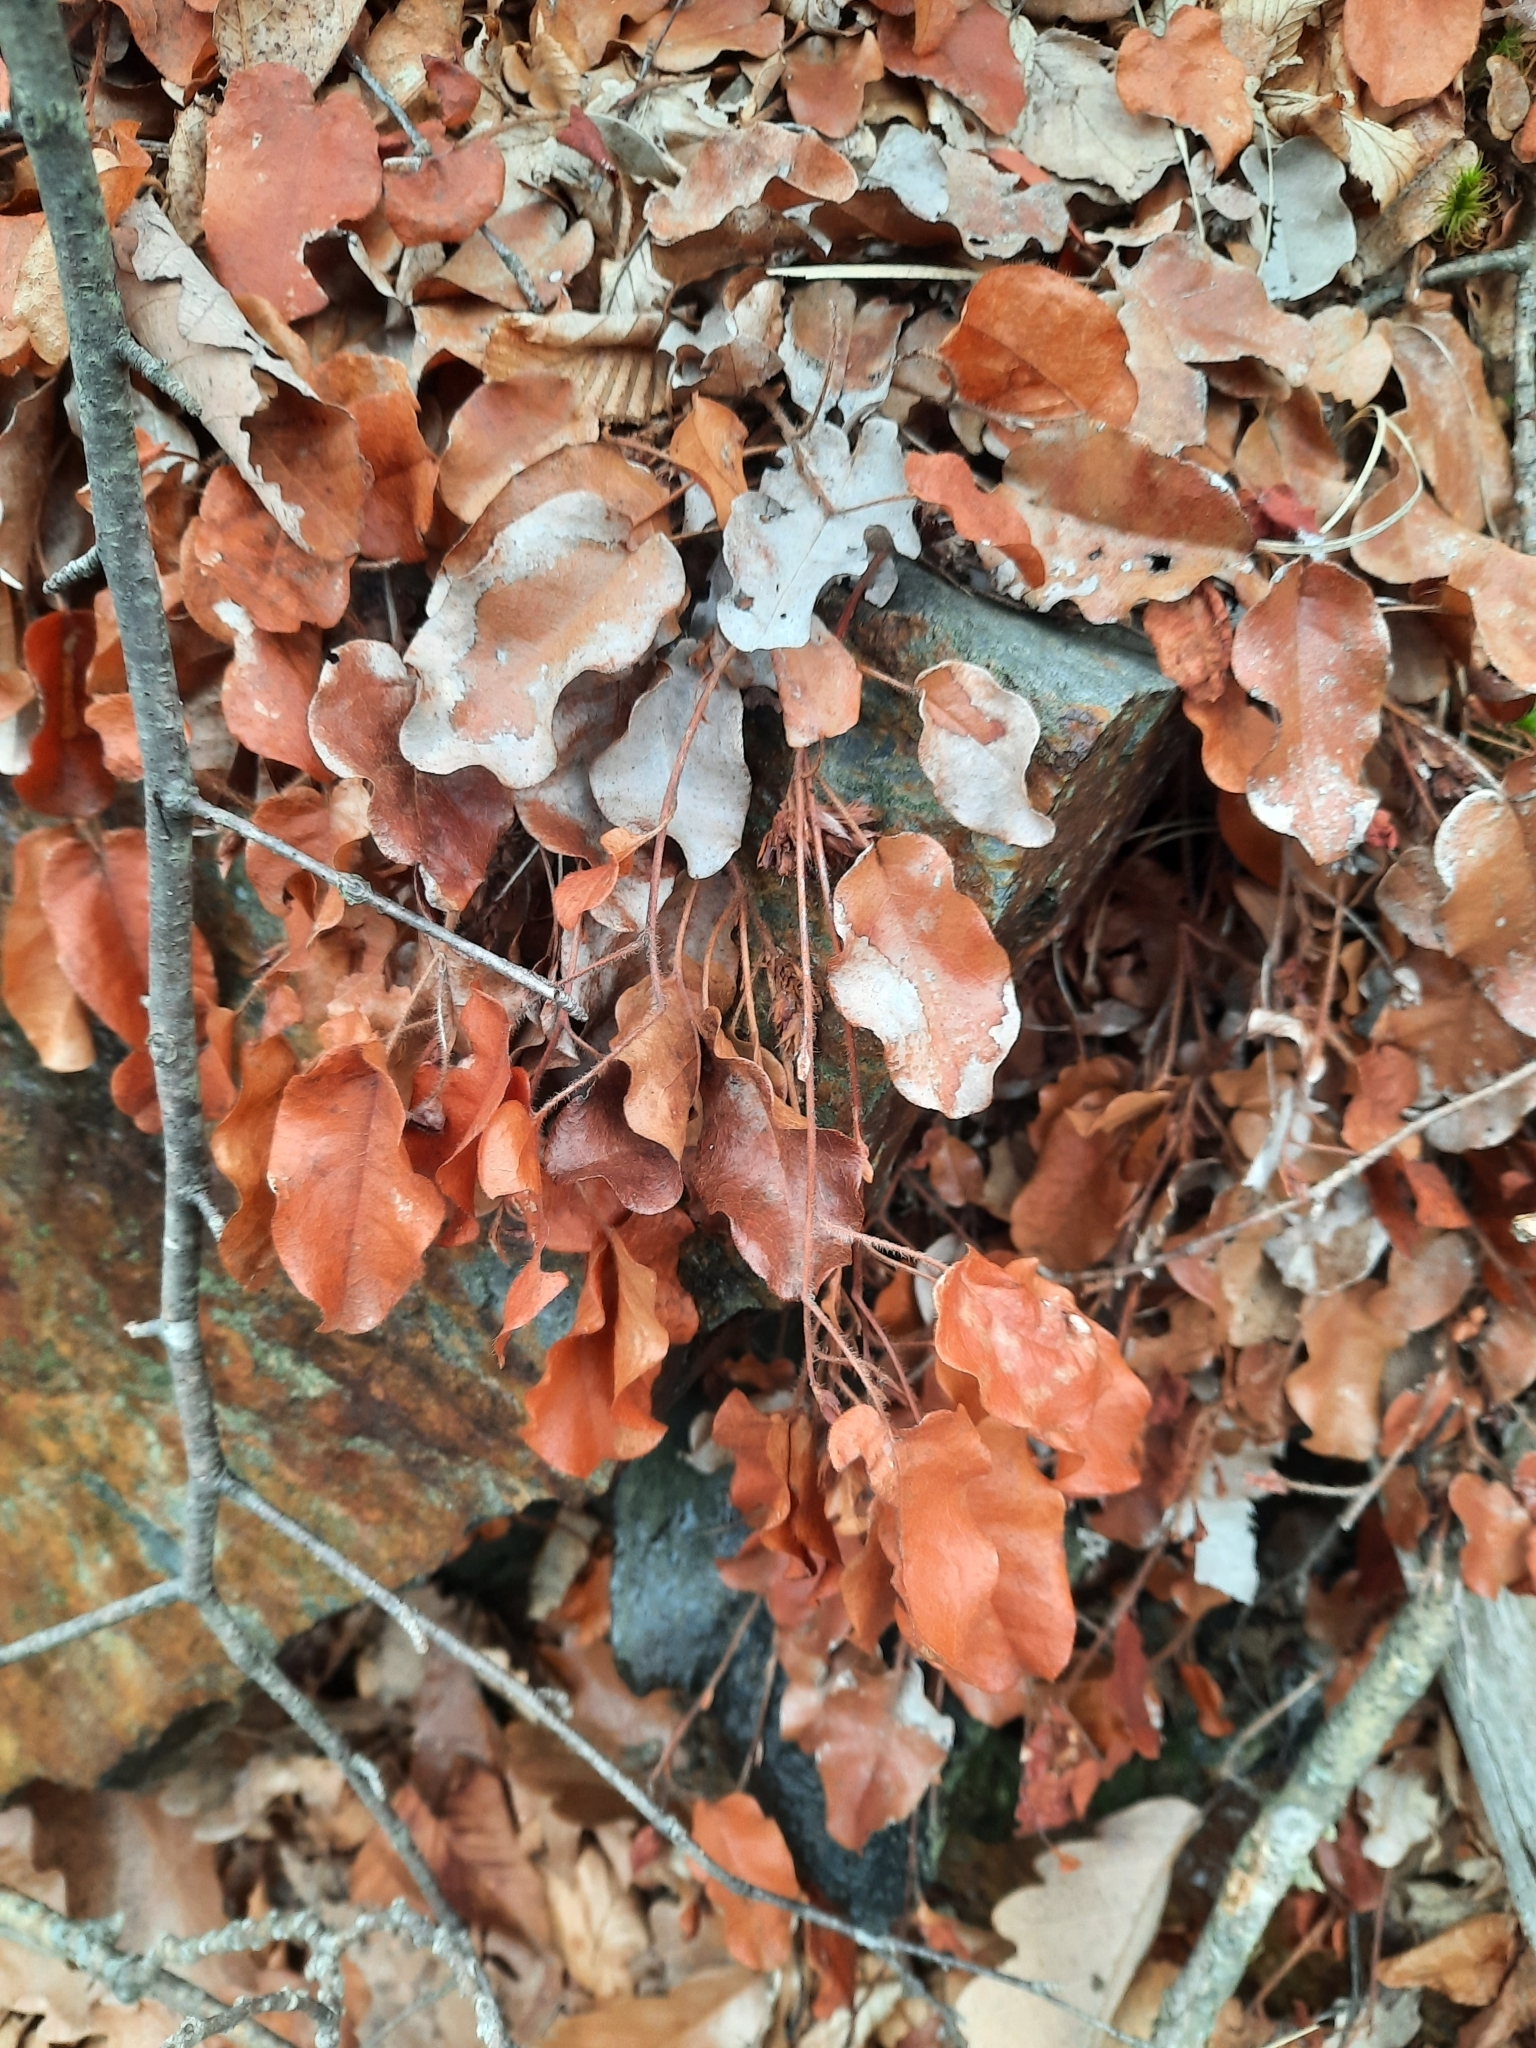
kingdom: Plantae
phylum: Tracheophyta
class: Magnoliopsida
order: Ericales
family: Ericaceae
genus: Epigaea
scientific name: Epigaea repens
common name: Gravelroot
